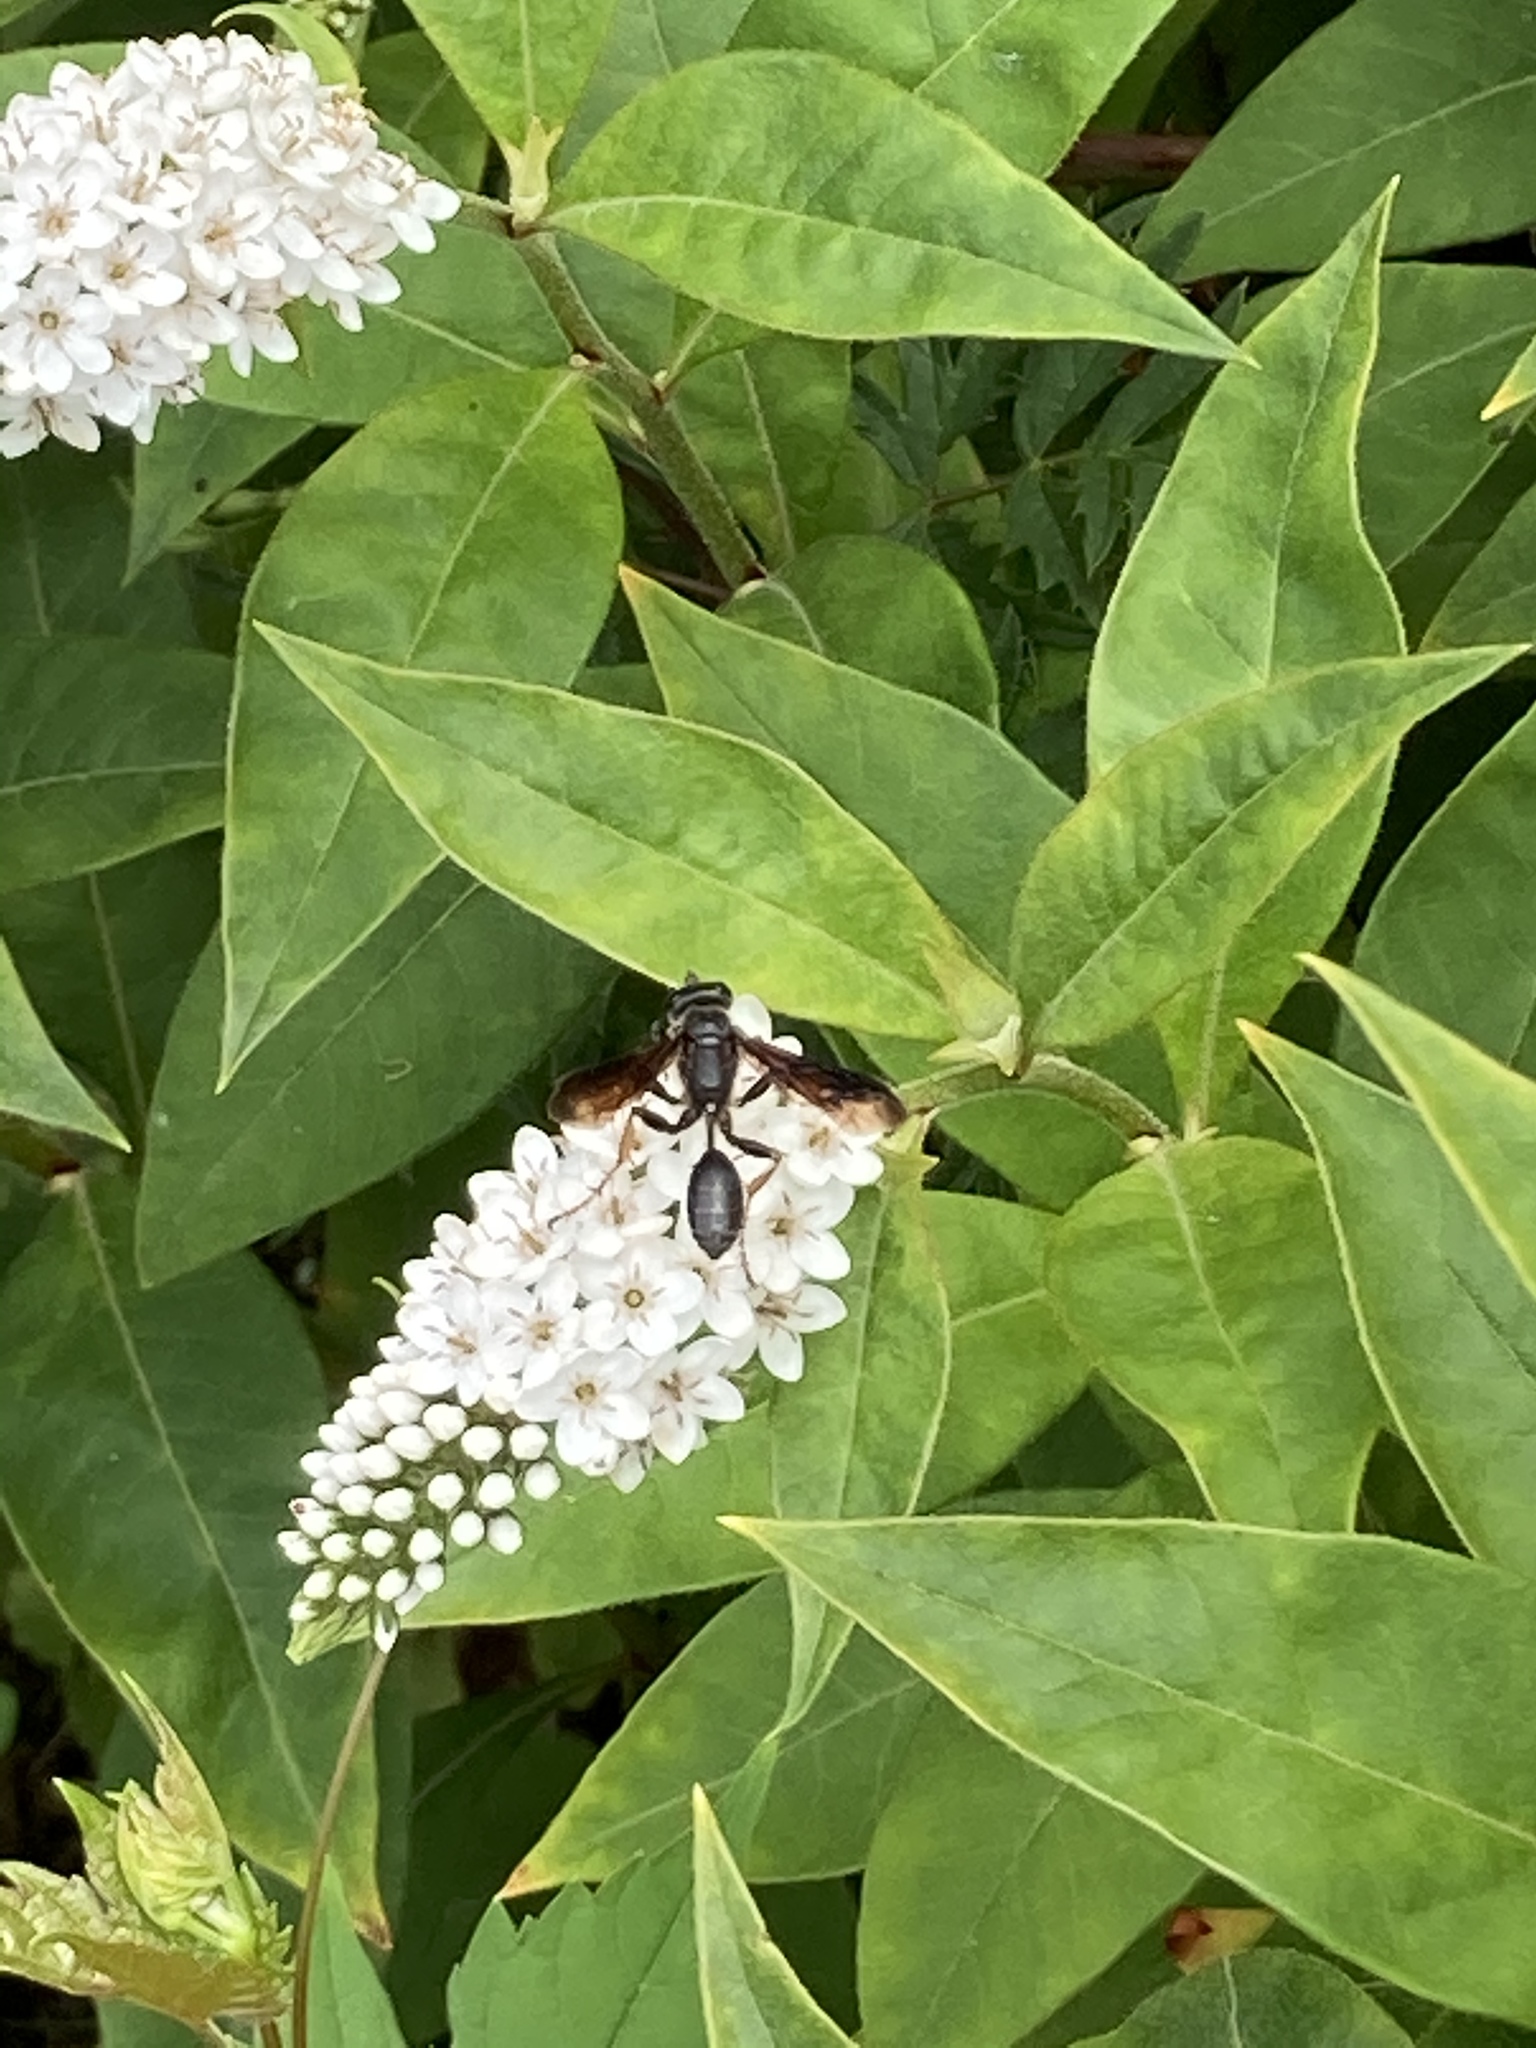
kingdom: Animalia
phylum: Arthropoda
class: Insecta
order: Hymenoptera
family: Sphecidae
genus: Isodontia
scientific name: Isodontia
